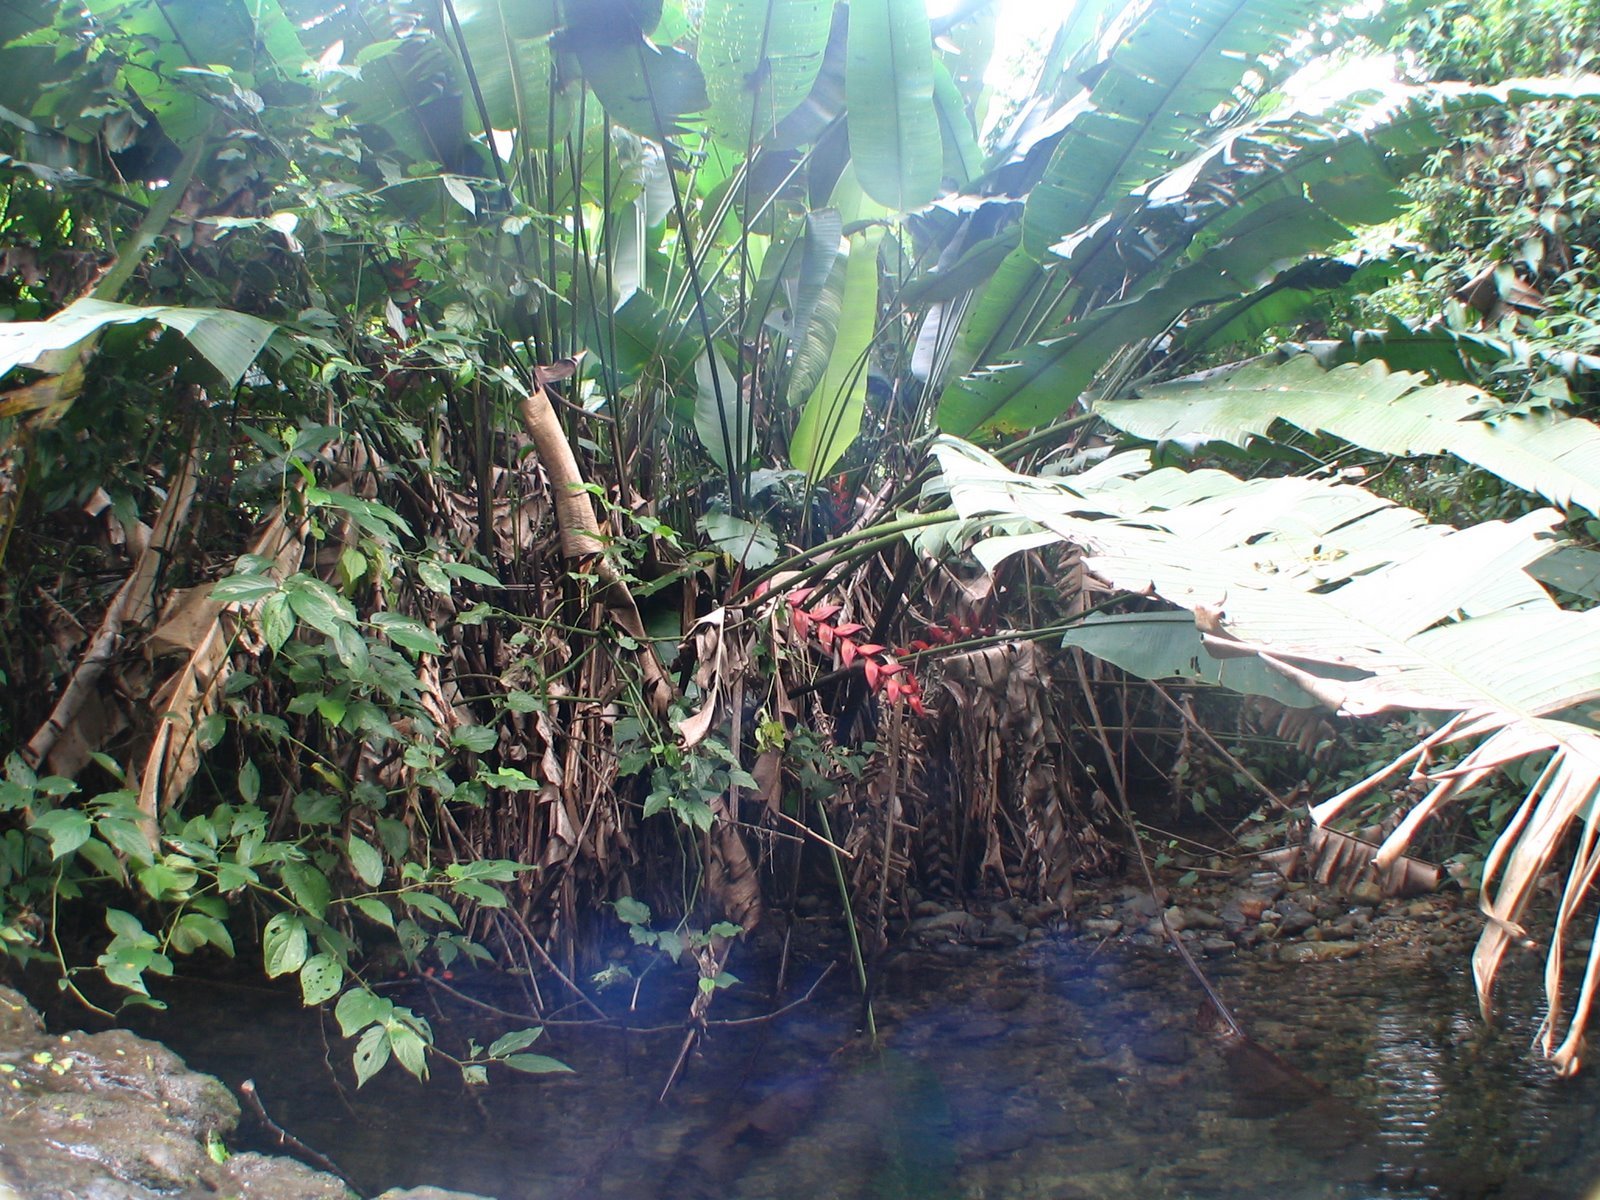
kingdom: Plantae
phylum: Tracheophyta
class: Liliopsida
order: Zingiberales
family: Heliconiaceae
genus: Heliconia
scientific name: Heliconia bihai
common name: Macaw flower
